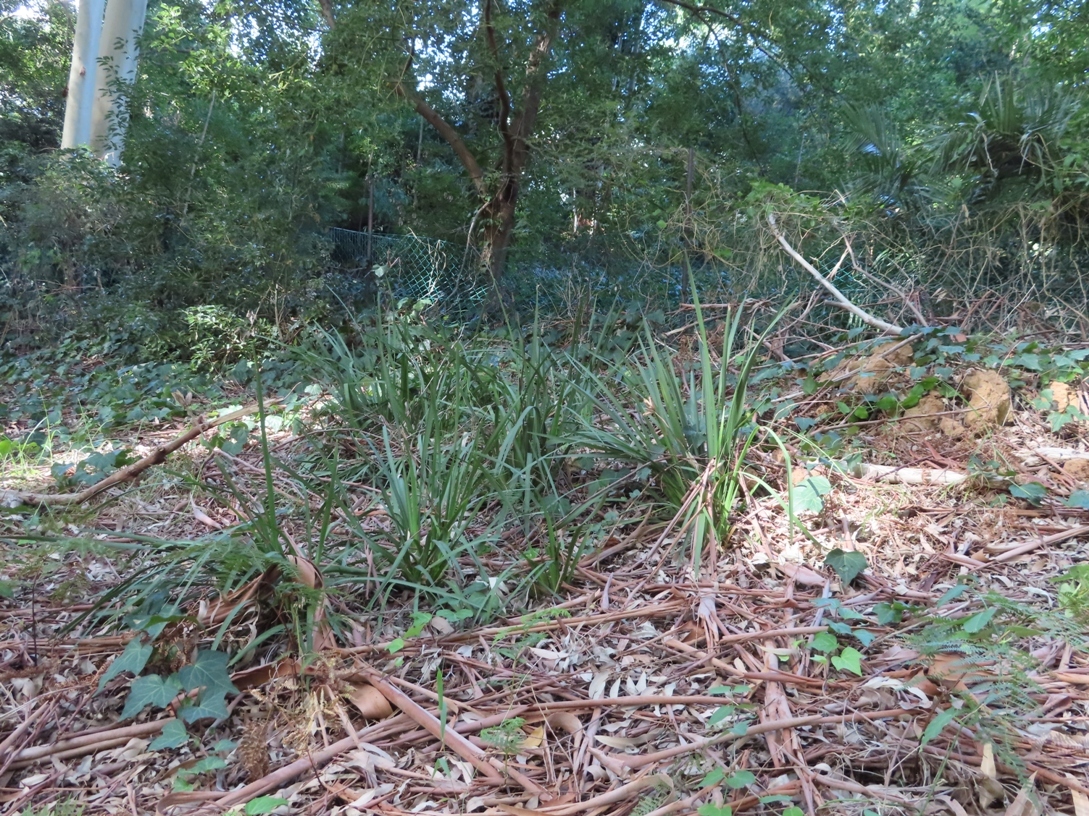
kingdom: Plantae
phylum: Tracheophyta
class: Liliopsida
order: Asparagales
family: Iridaceae
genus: Dietes
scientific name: Dietes grandiflora
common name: Wild iris
